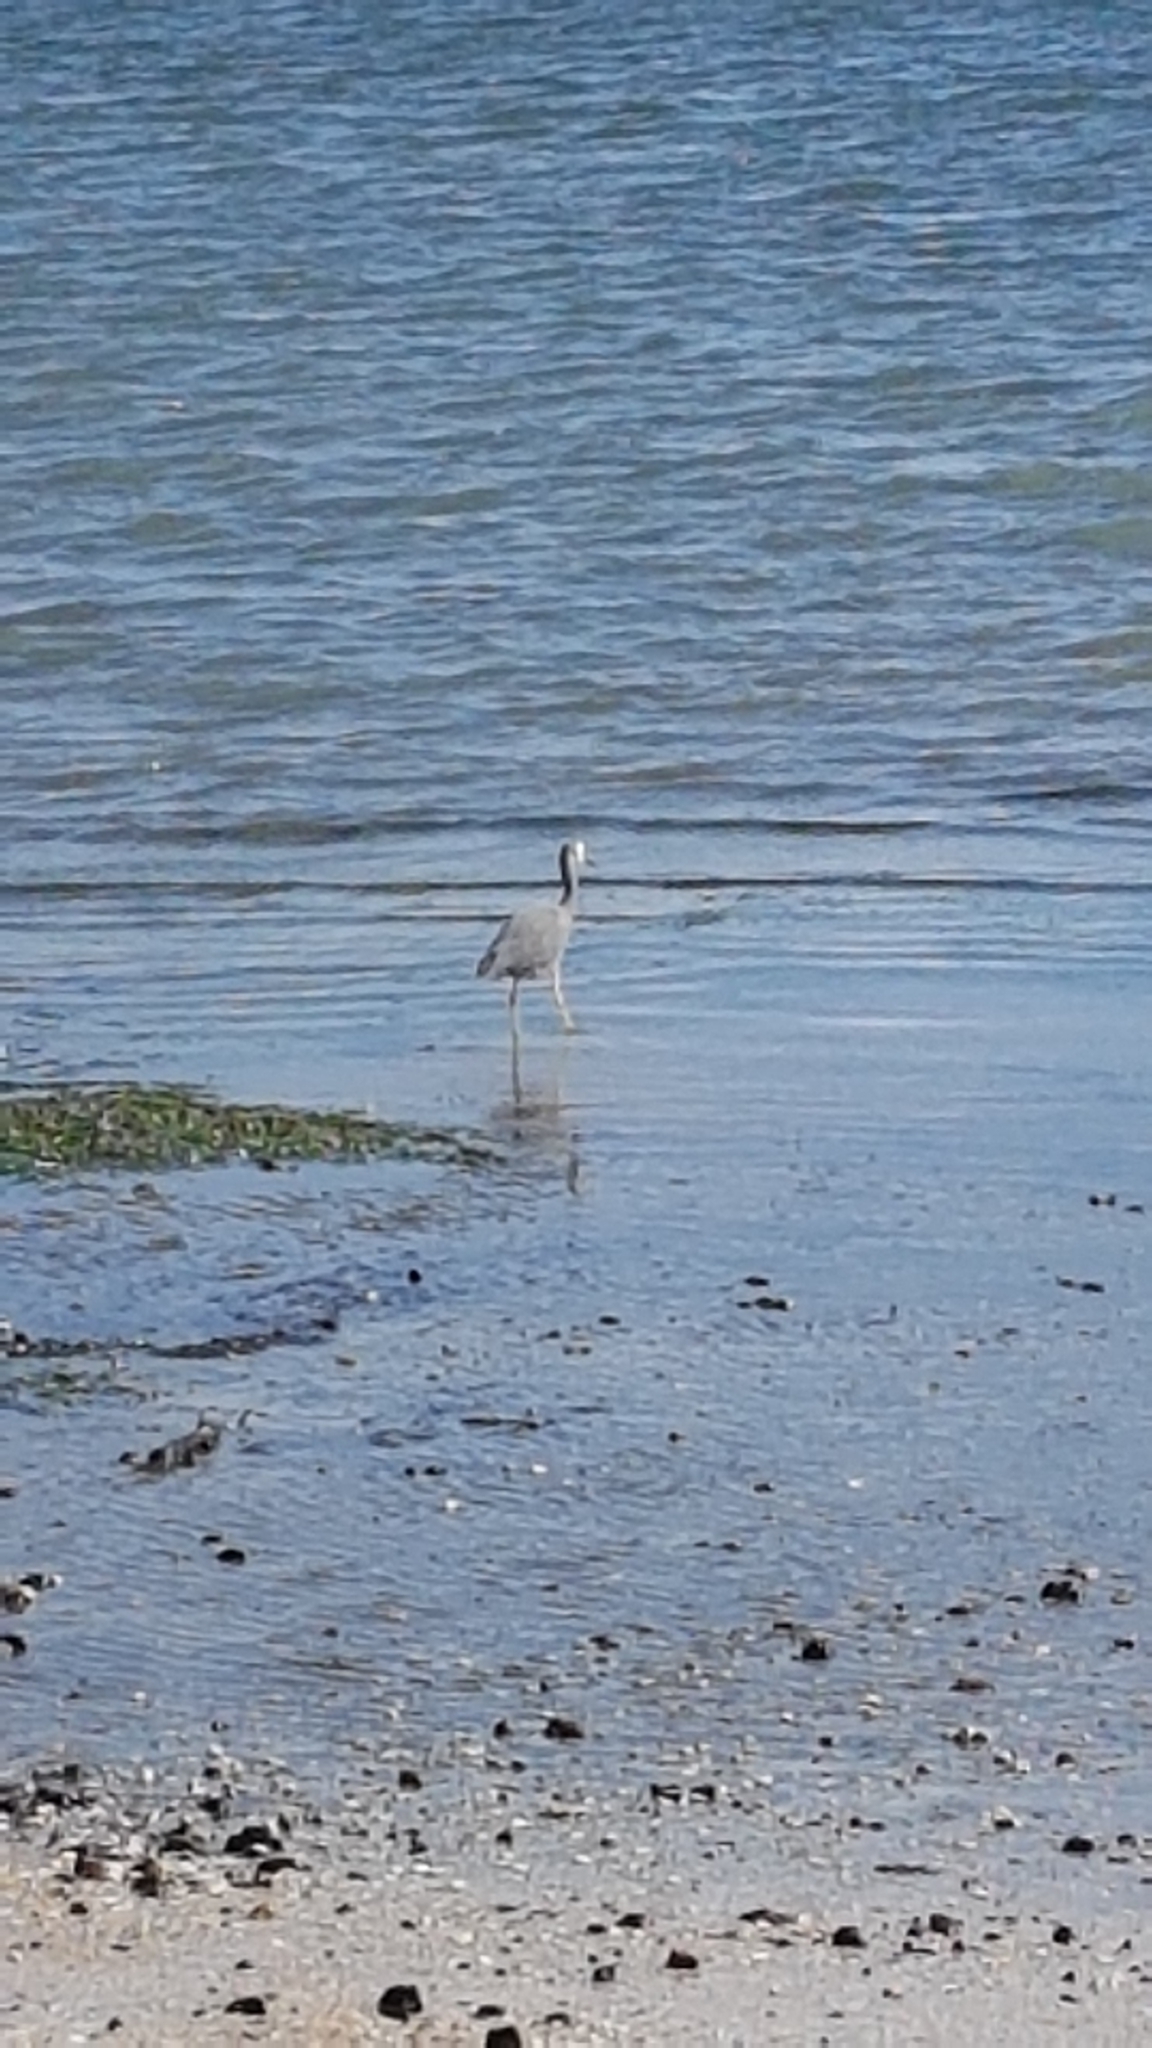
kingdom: Animalia
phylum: Chordata
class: Aves
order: Pelecaniformes
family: Ardeidae
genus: Egretta
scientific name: Egretta novaehollandiae
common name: White-faced heron
